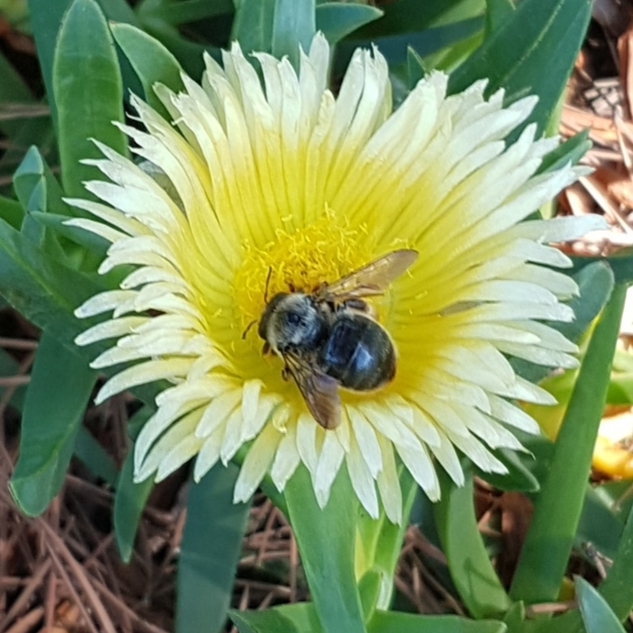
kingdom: Animalia
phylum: Arthropoda
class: Insecta
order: Hymenoptera
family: Apidae
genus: Xylocopa
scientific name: Xylocopa cantabrita
